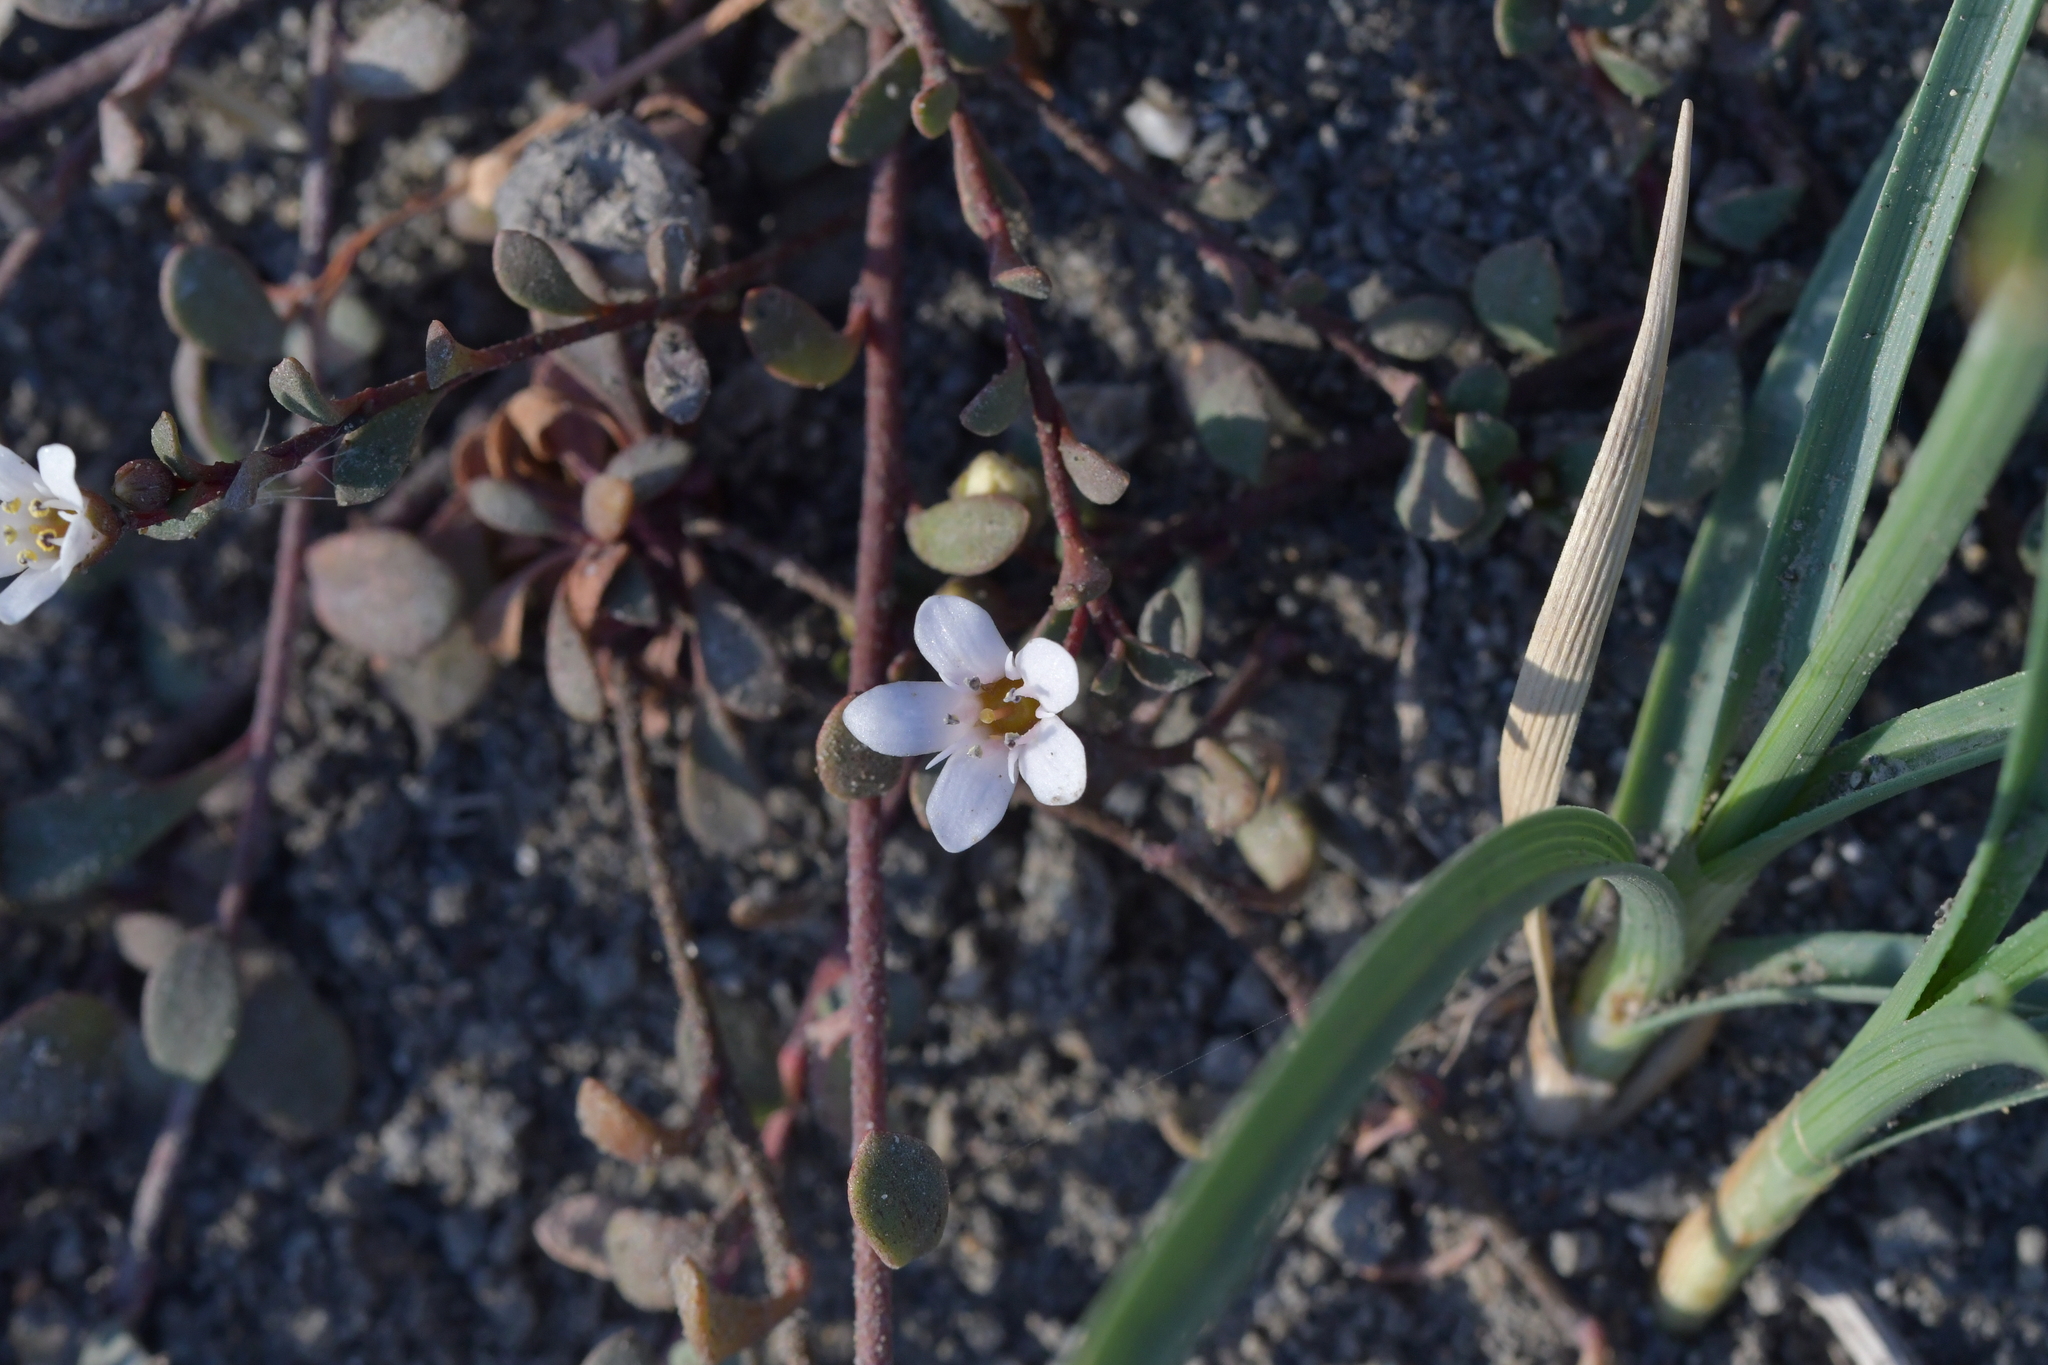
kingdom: Plantae
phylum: Tracheophyta
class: Magnoliopsida
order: Ericales
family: Primulaceae
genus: Samolus
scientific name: Samolus repens
